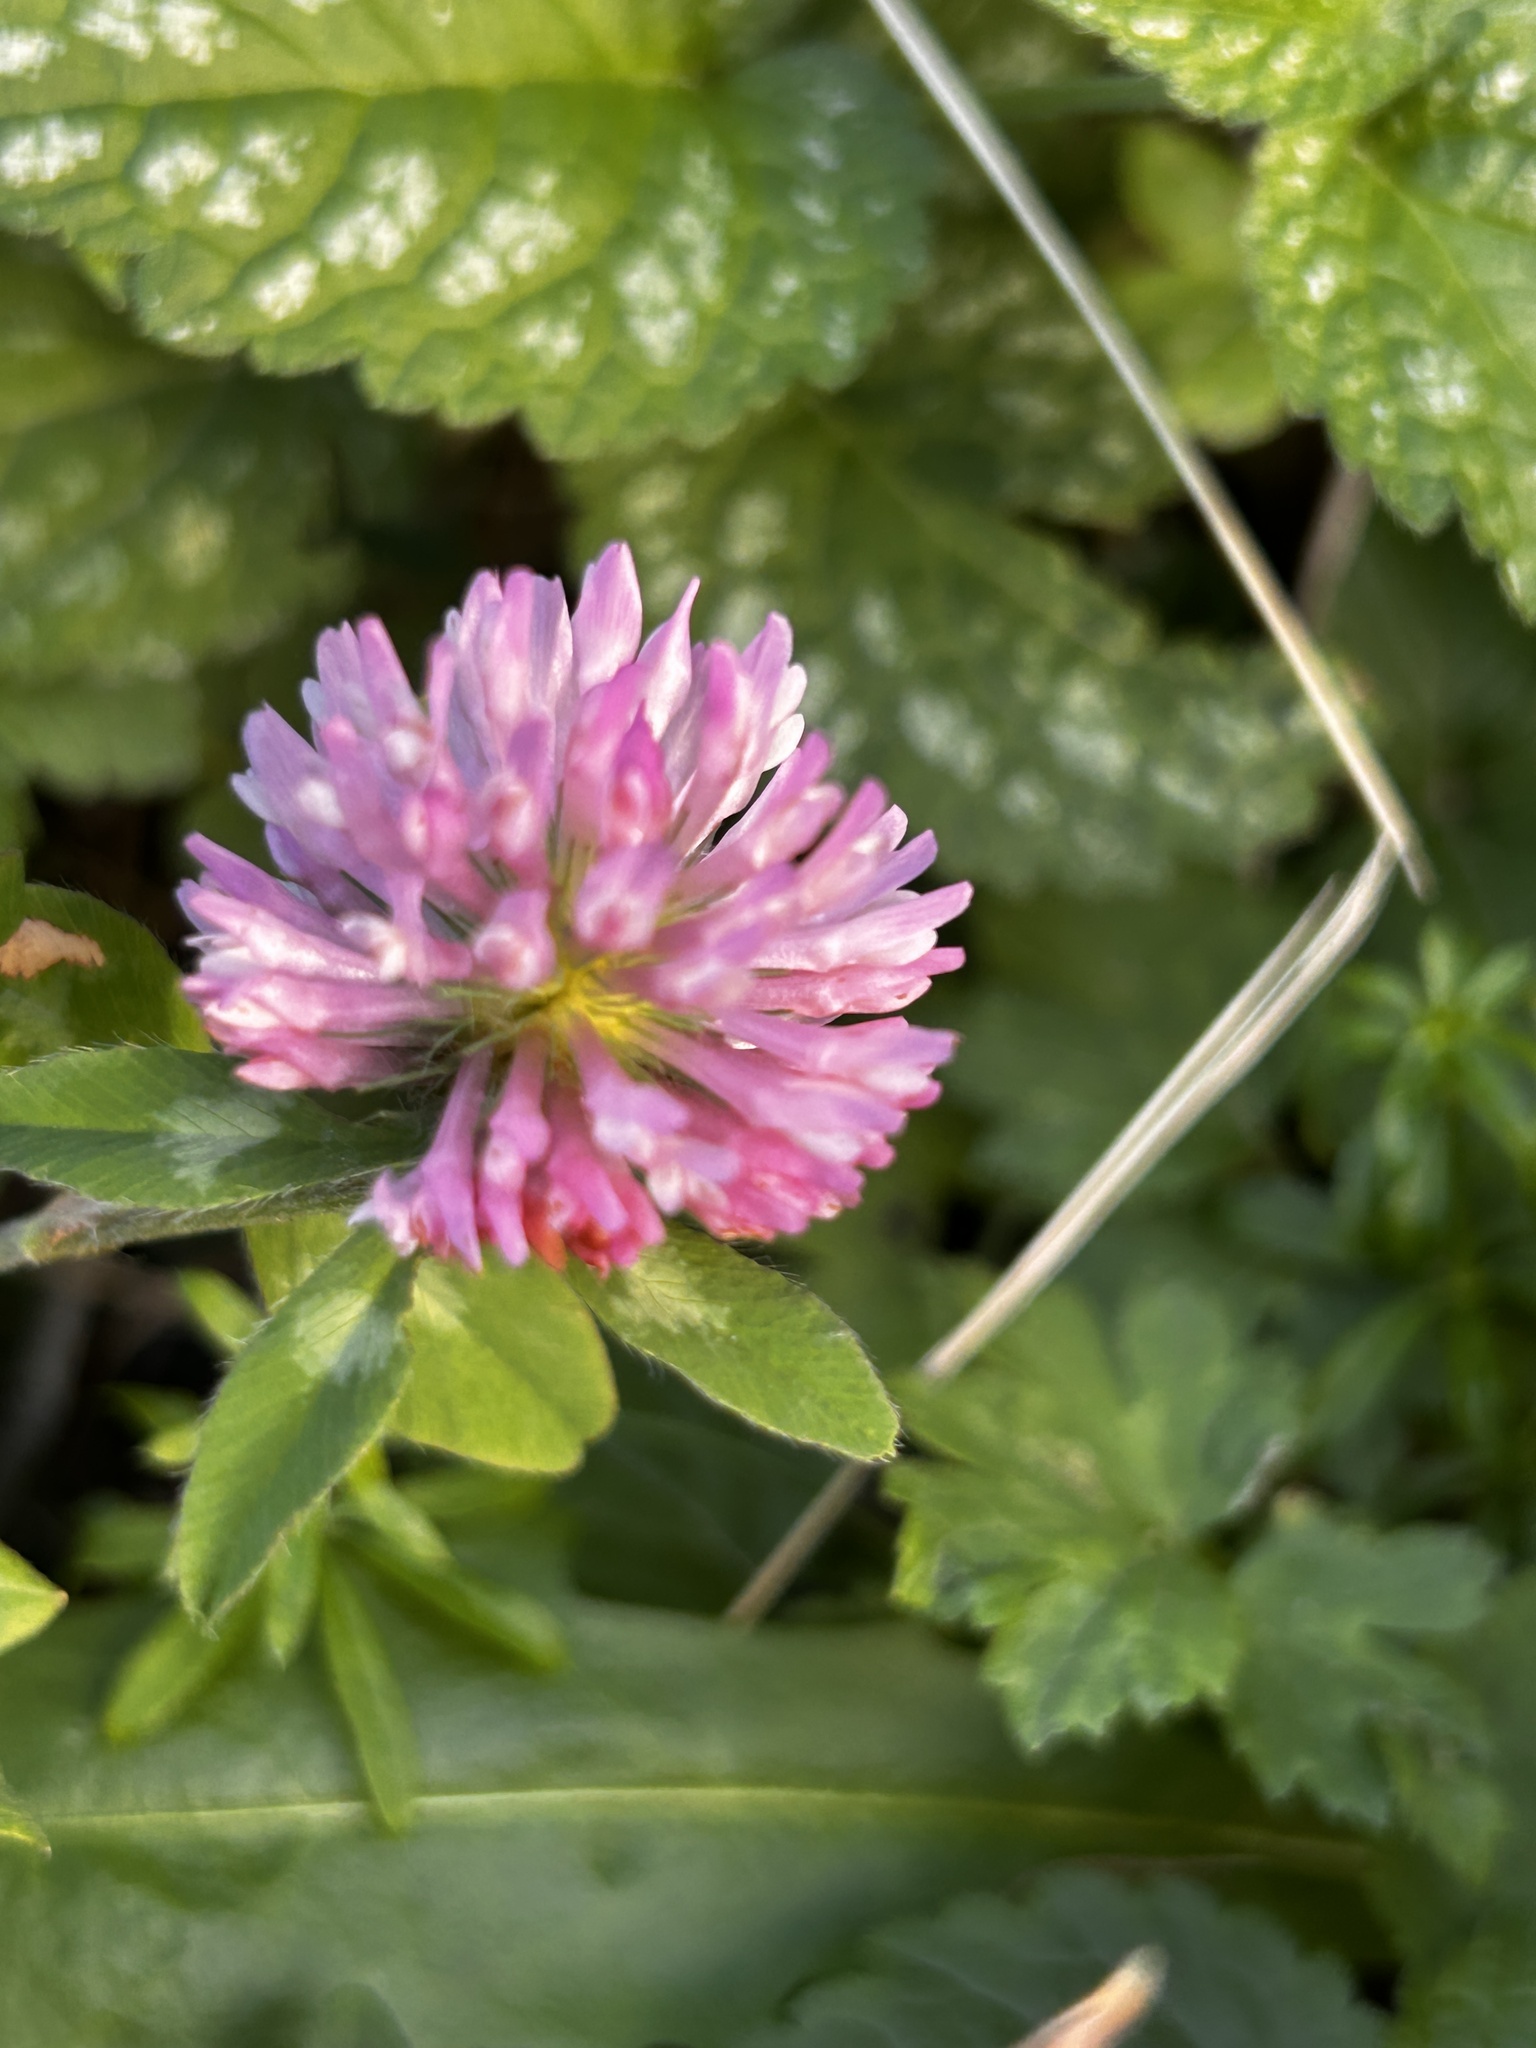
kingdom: Plantae
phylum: Tracheophyta
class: Magnoliopsida
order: Fabales
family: Fabaceae
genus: Trifolium
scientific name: Trifolium pratense
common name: Red clover
